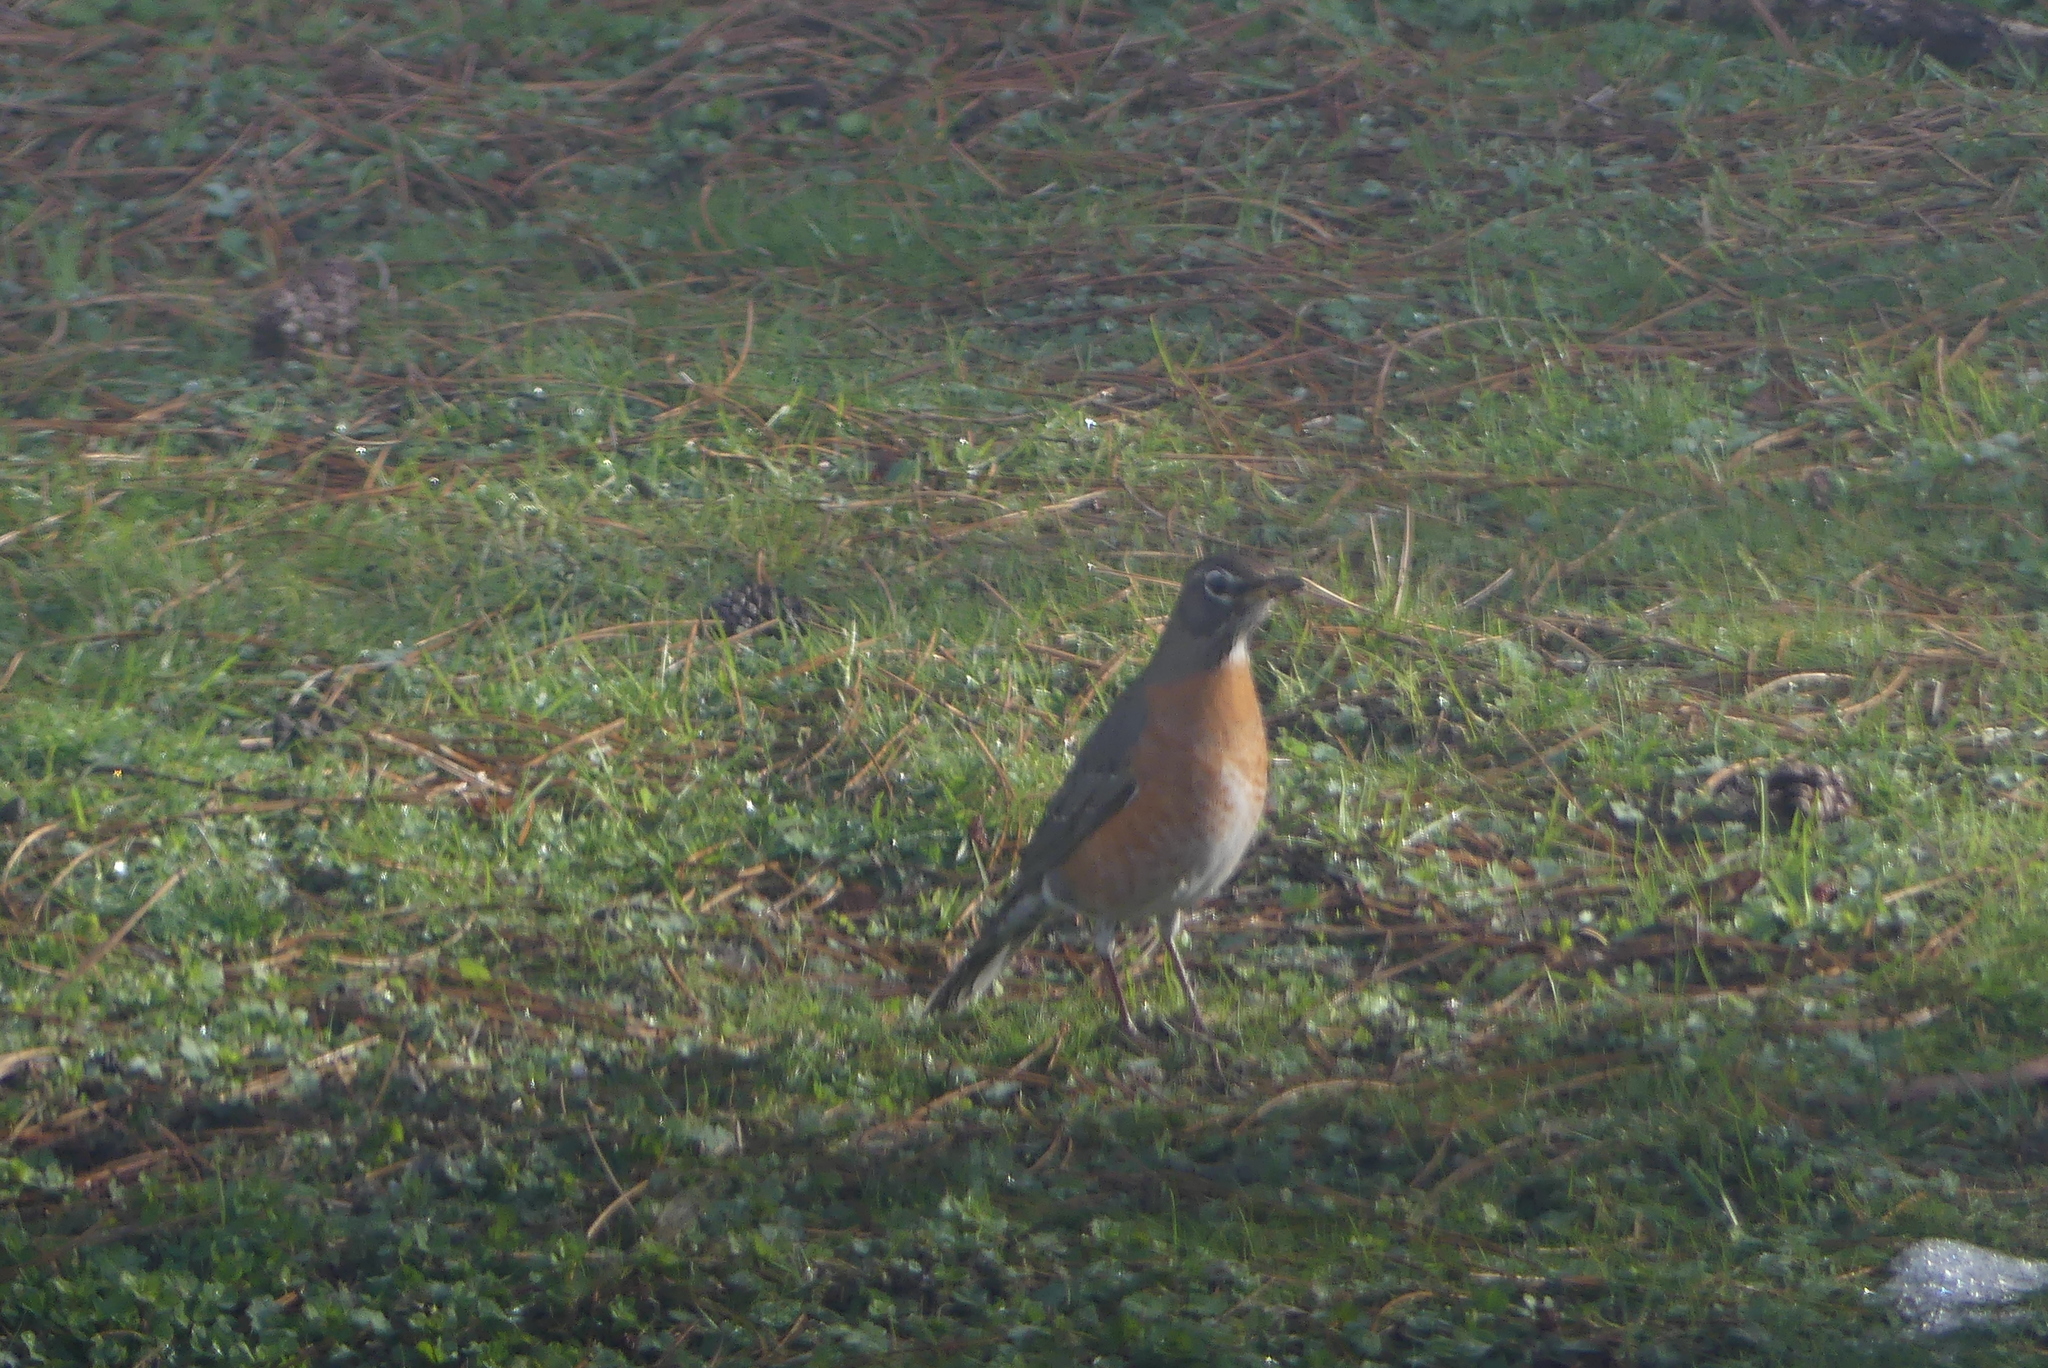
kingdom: Animalia
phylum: Chordata
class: Aves
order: Passeriformes
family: Turdidae
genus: Turdus
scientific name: Turdus migratorius
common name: American robin
